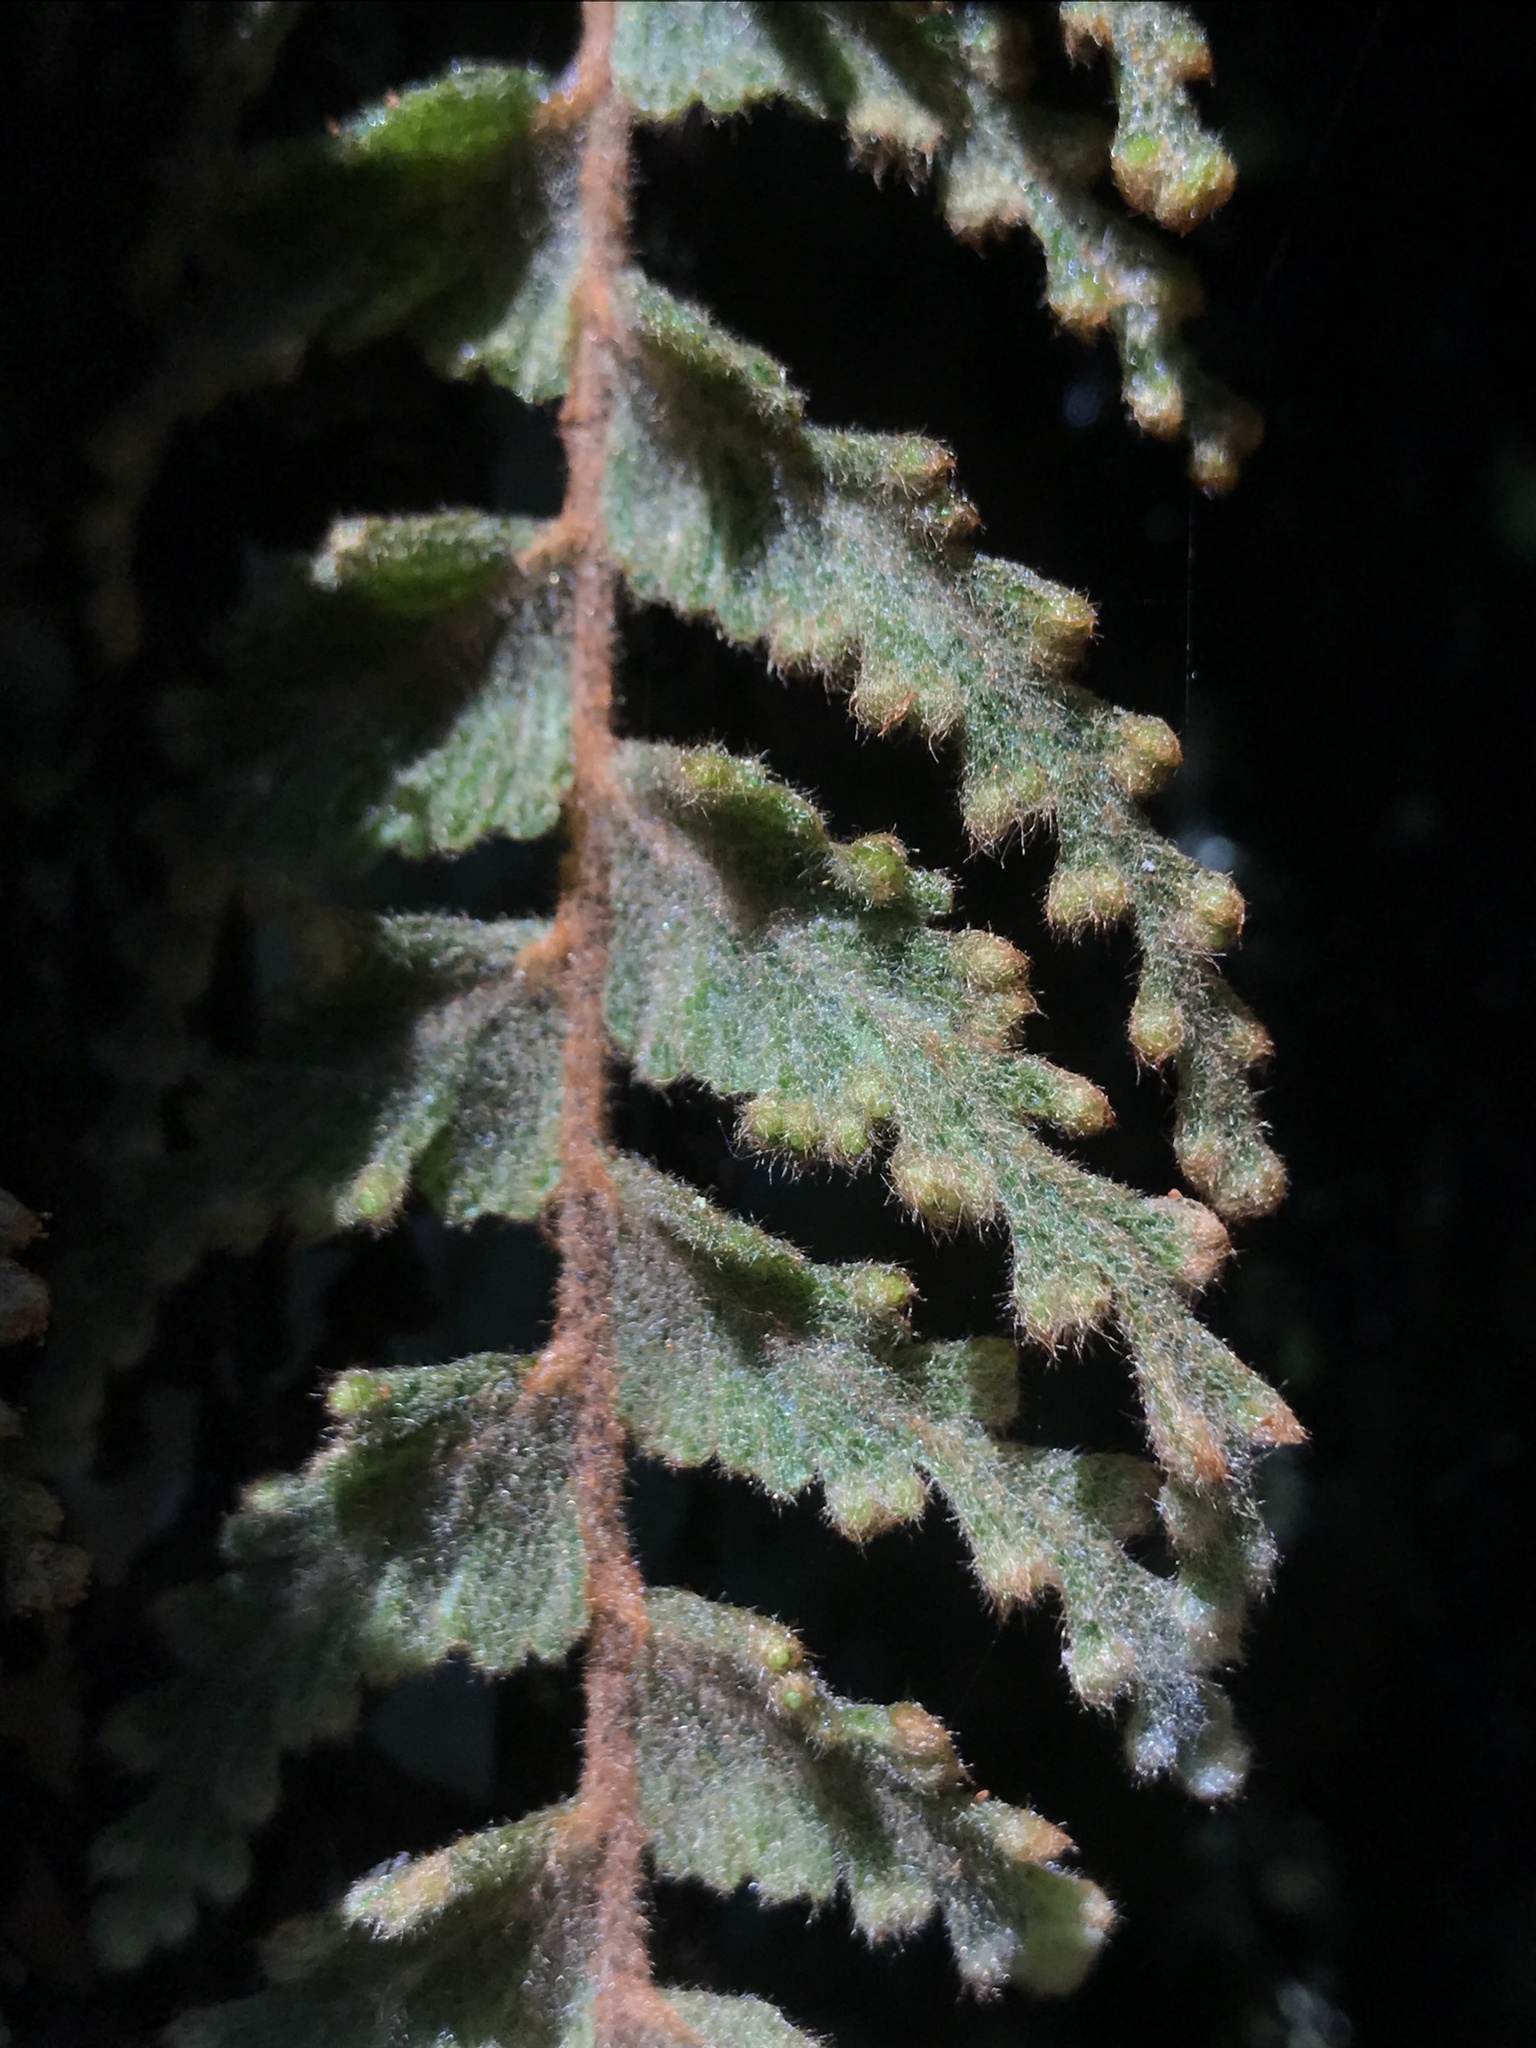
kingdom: Plantae
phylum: Tracheophyta
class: Polypodiopsida
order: Hymenophyllales
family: Hymenophyllaceae
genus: Hymenophyllum
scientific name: Hymenophyllum tomentosum
